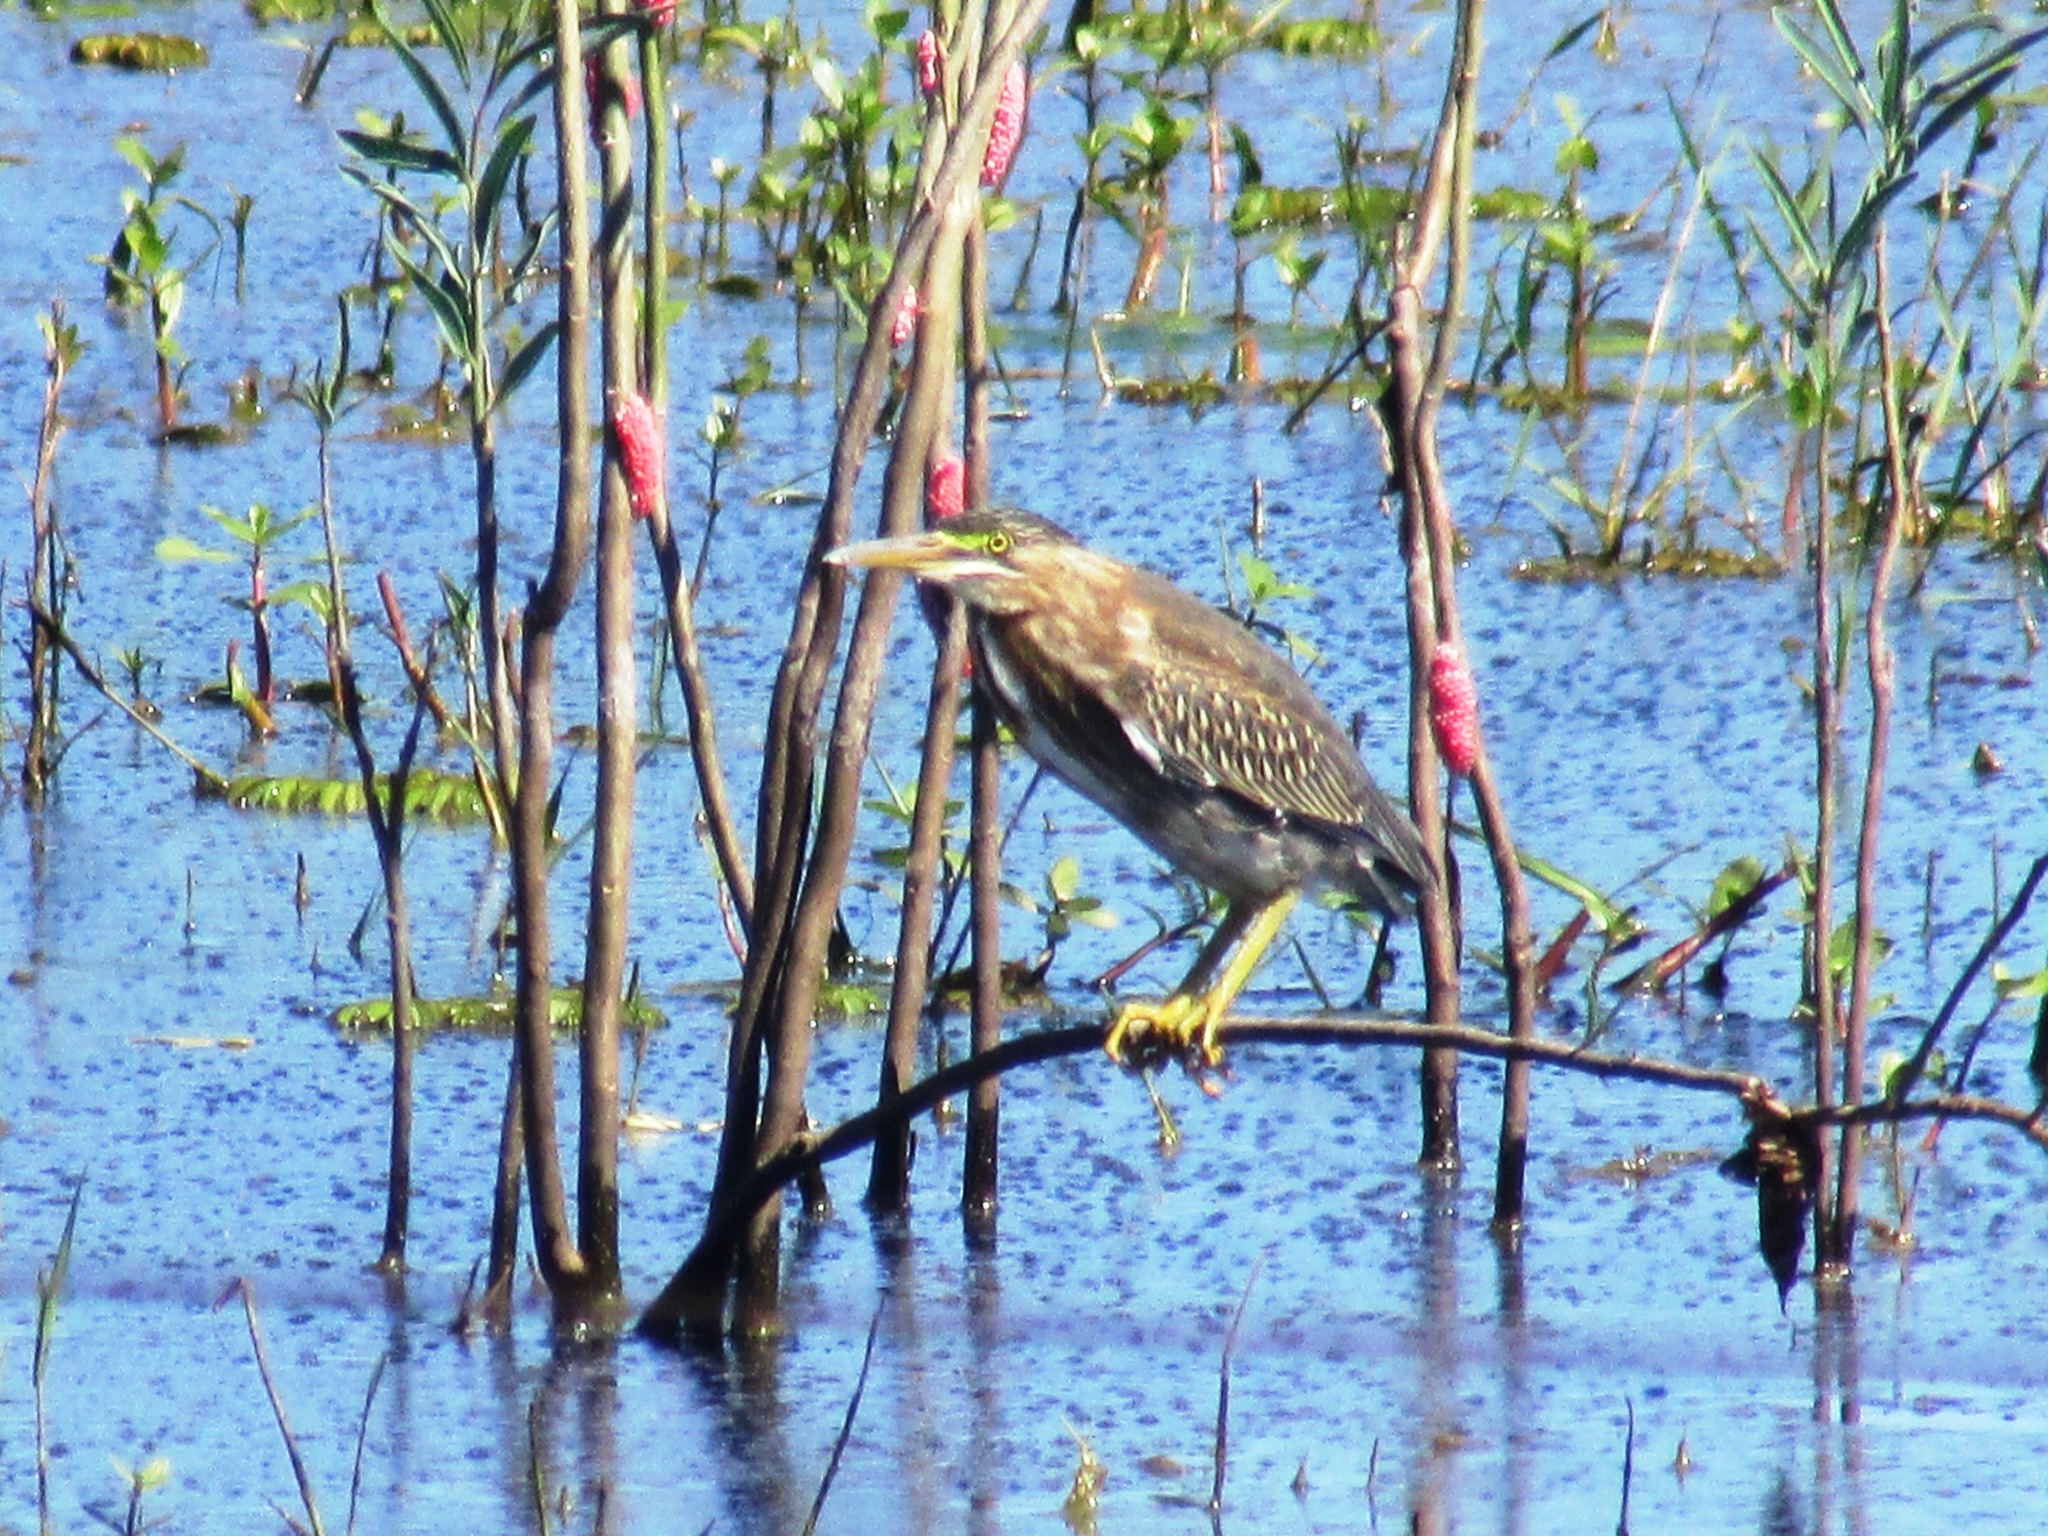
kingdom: Animalia
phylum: Chordata
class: Aves
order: Pelecaniformes
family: Ardeidae
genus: Butorides
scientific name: Butorides striata
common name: Striated heron
